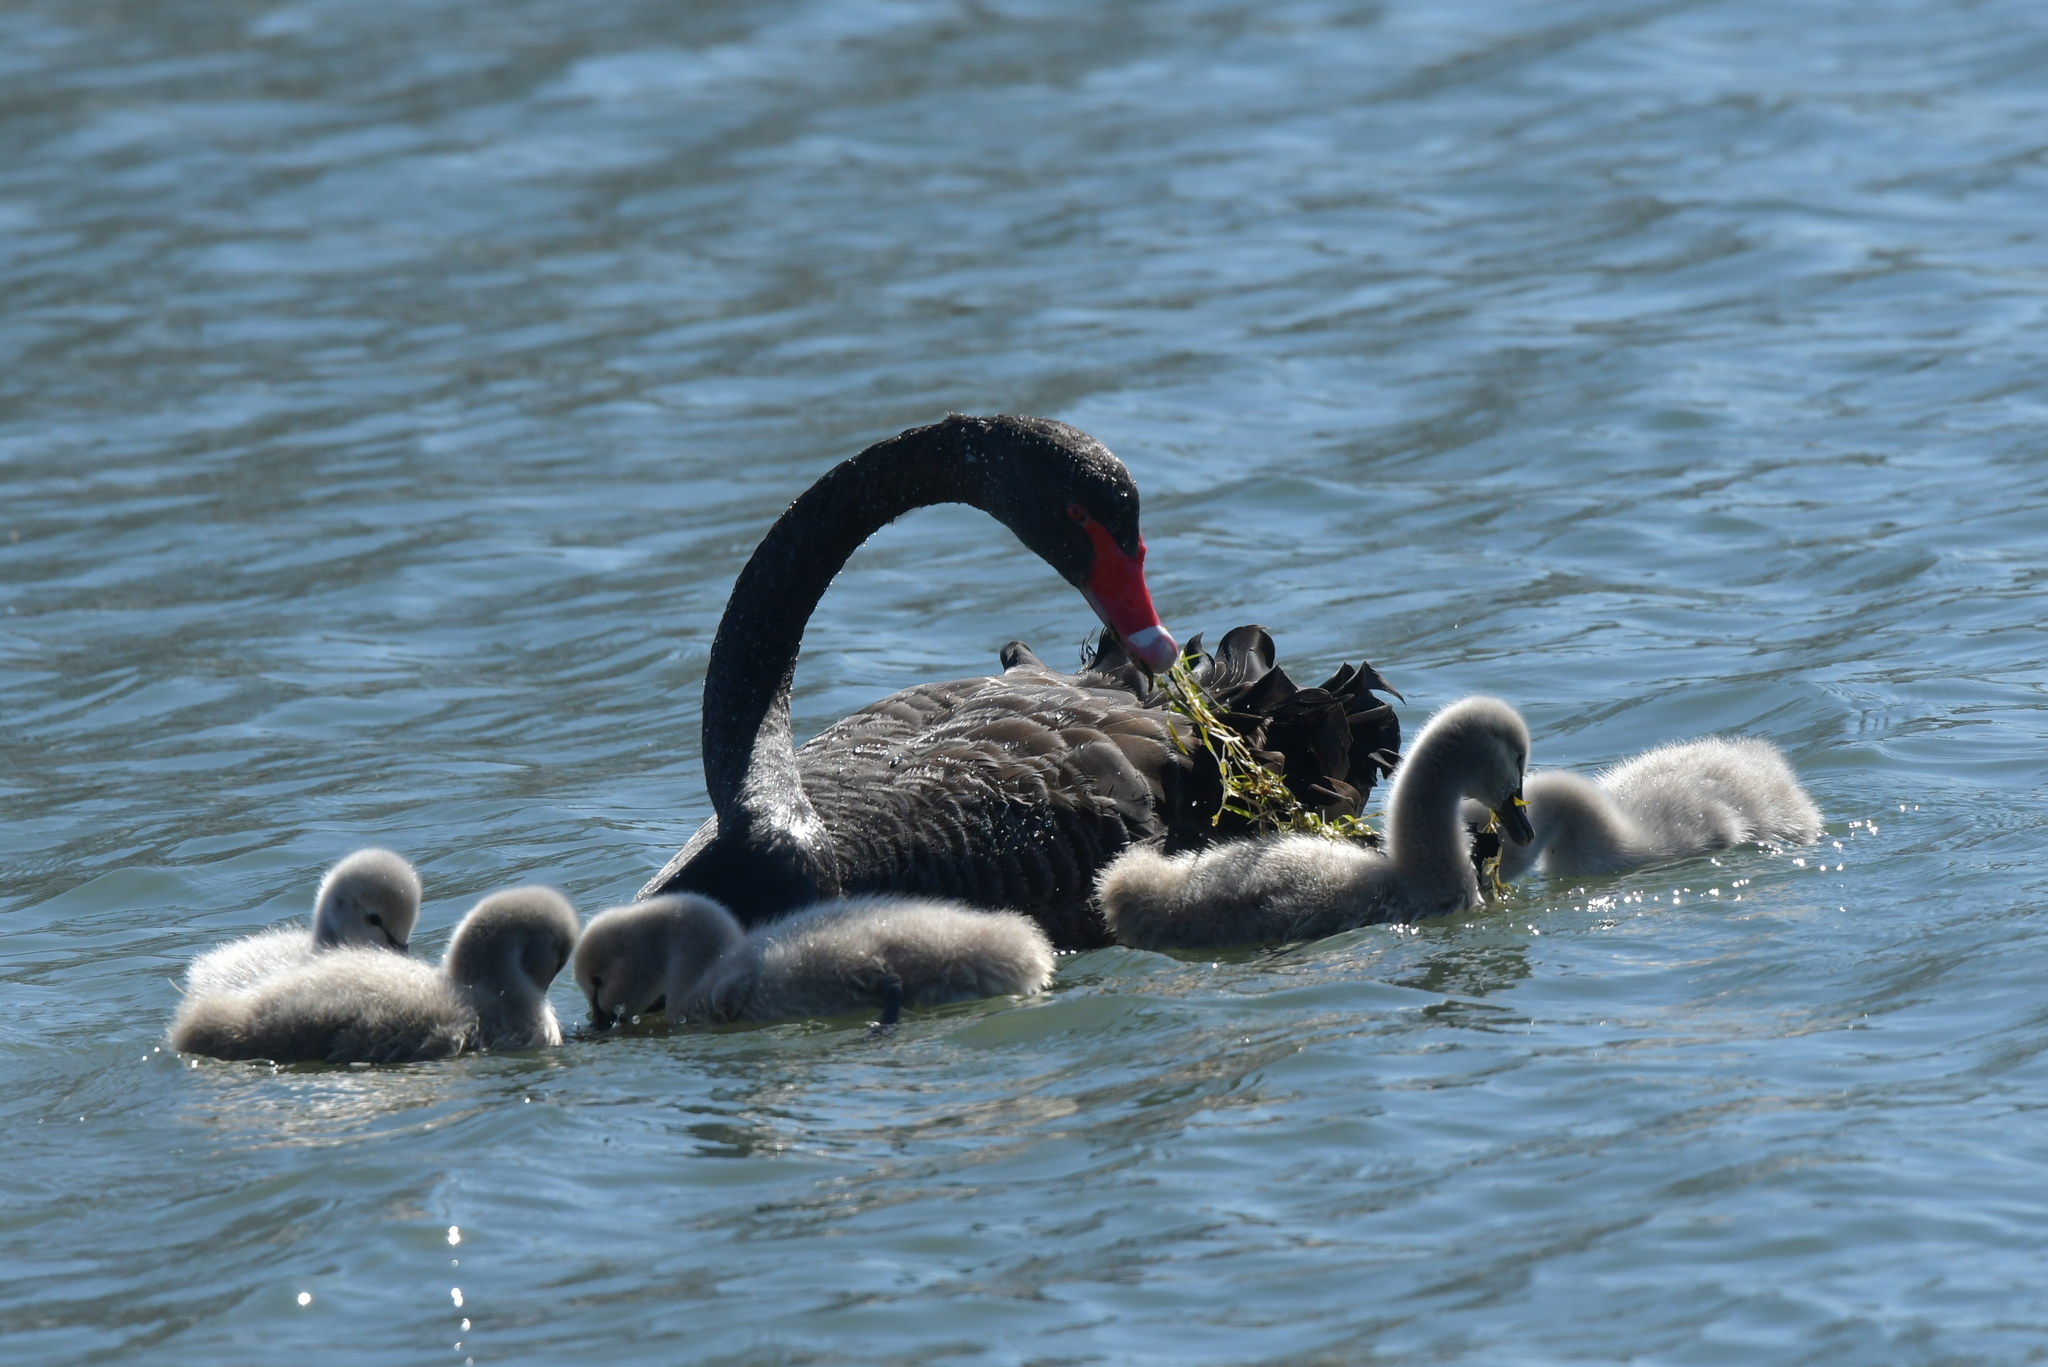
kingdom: Animalia
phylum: Chordata
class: Aves
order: Anseriformes
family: Anatidae
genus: Cygnus
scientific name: Cygnus atratus
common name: Black swan
